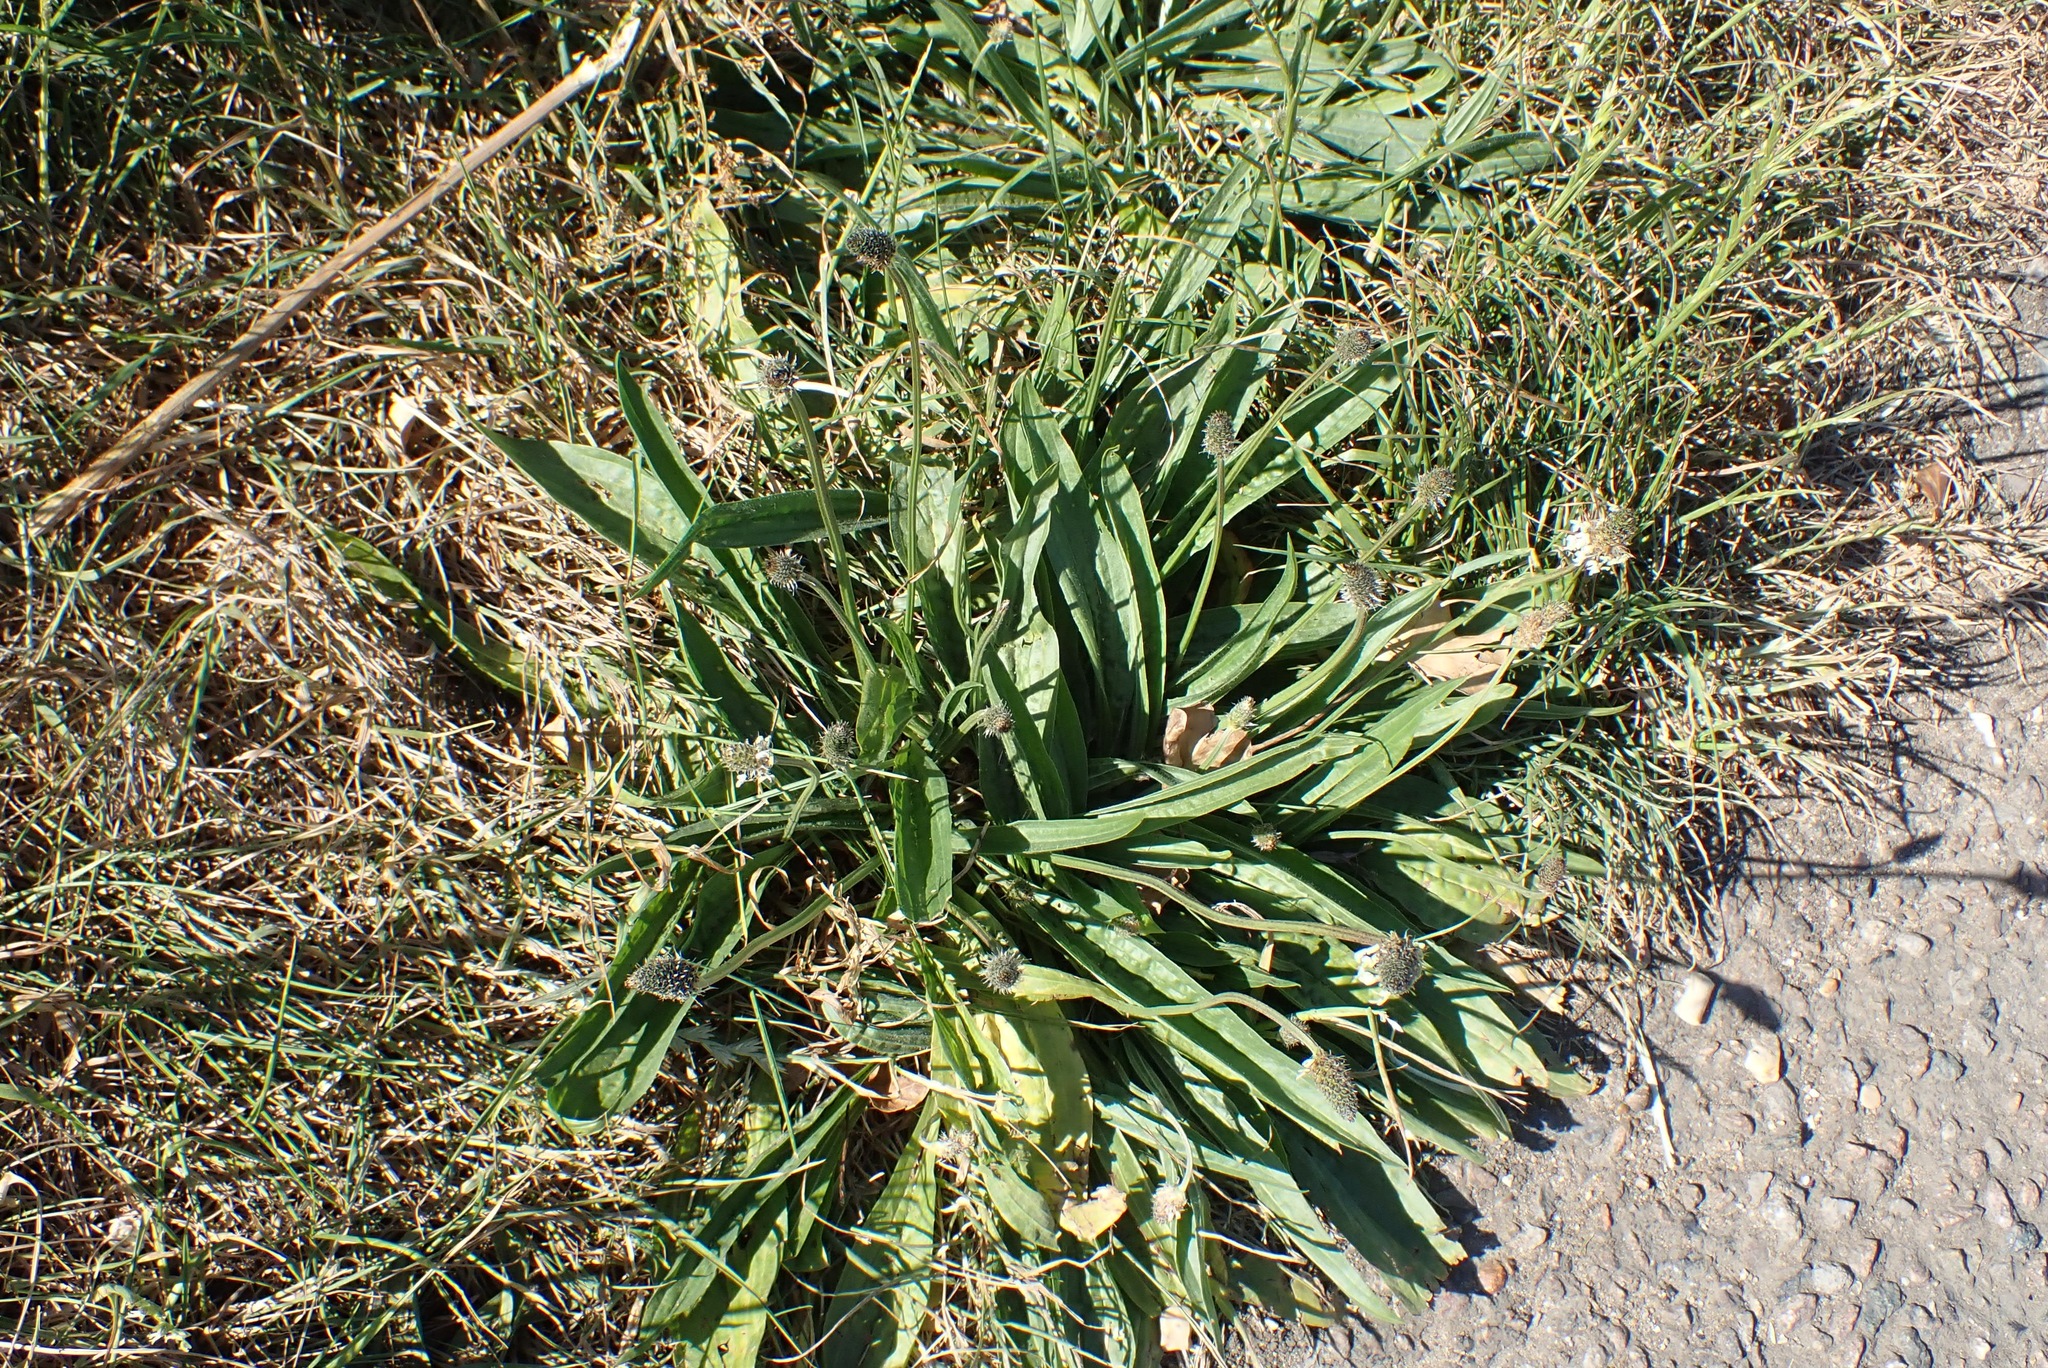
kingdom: Plantae
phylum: Tracheophyta
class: Magnoliopsida
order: Lamiales
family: Plantaginaceae
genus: Plantago
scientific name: Plantago lanceolata
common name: Ribwort plantain
